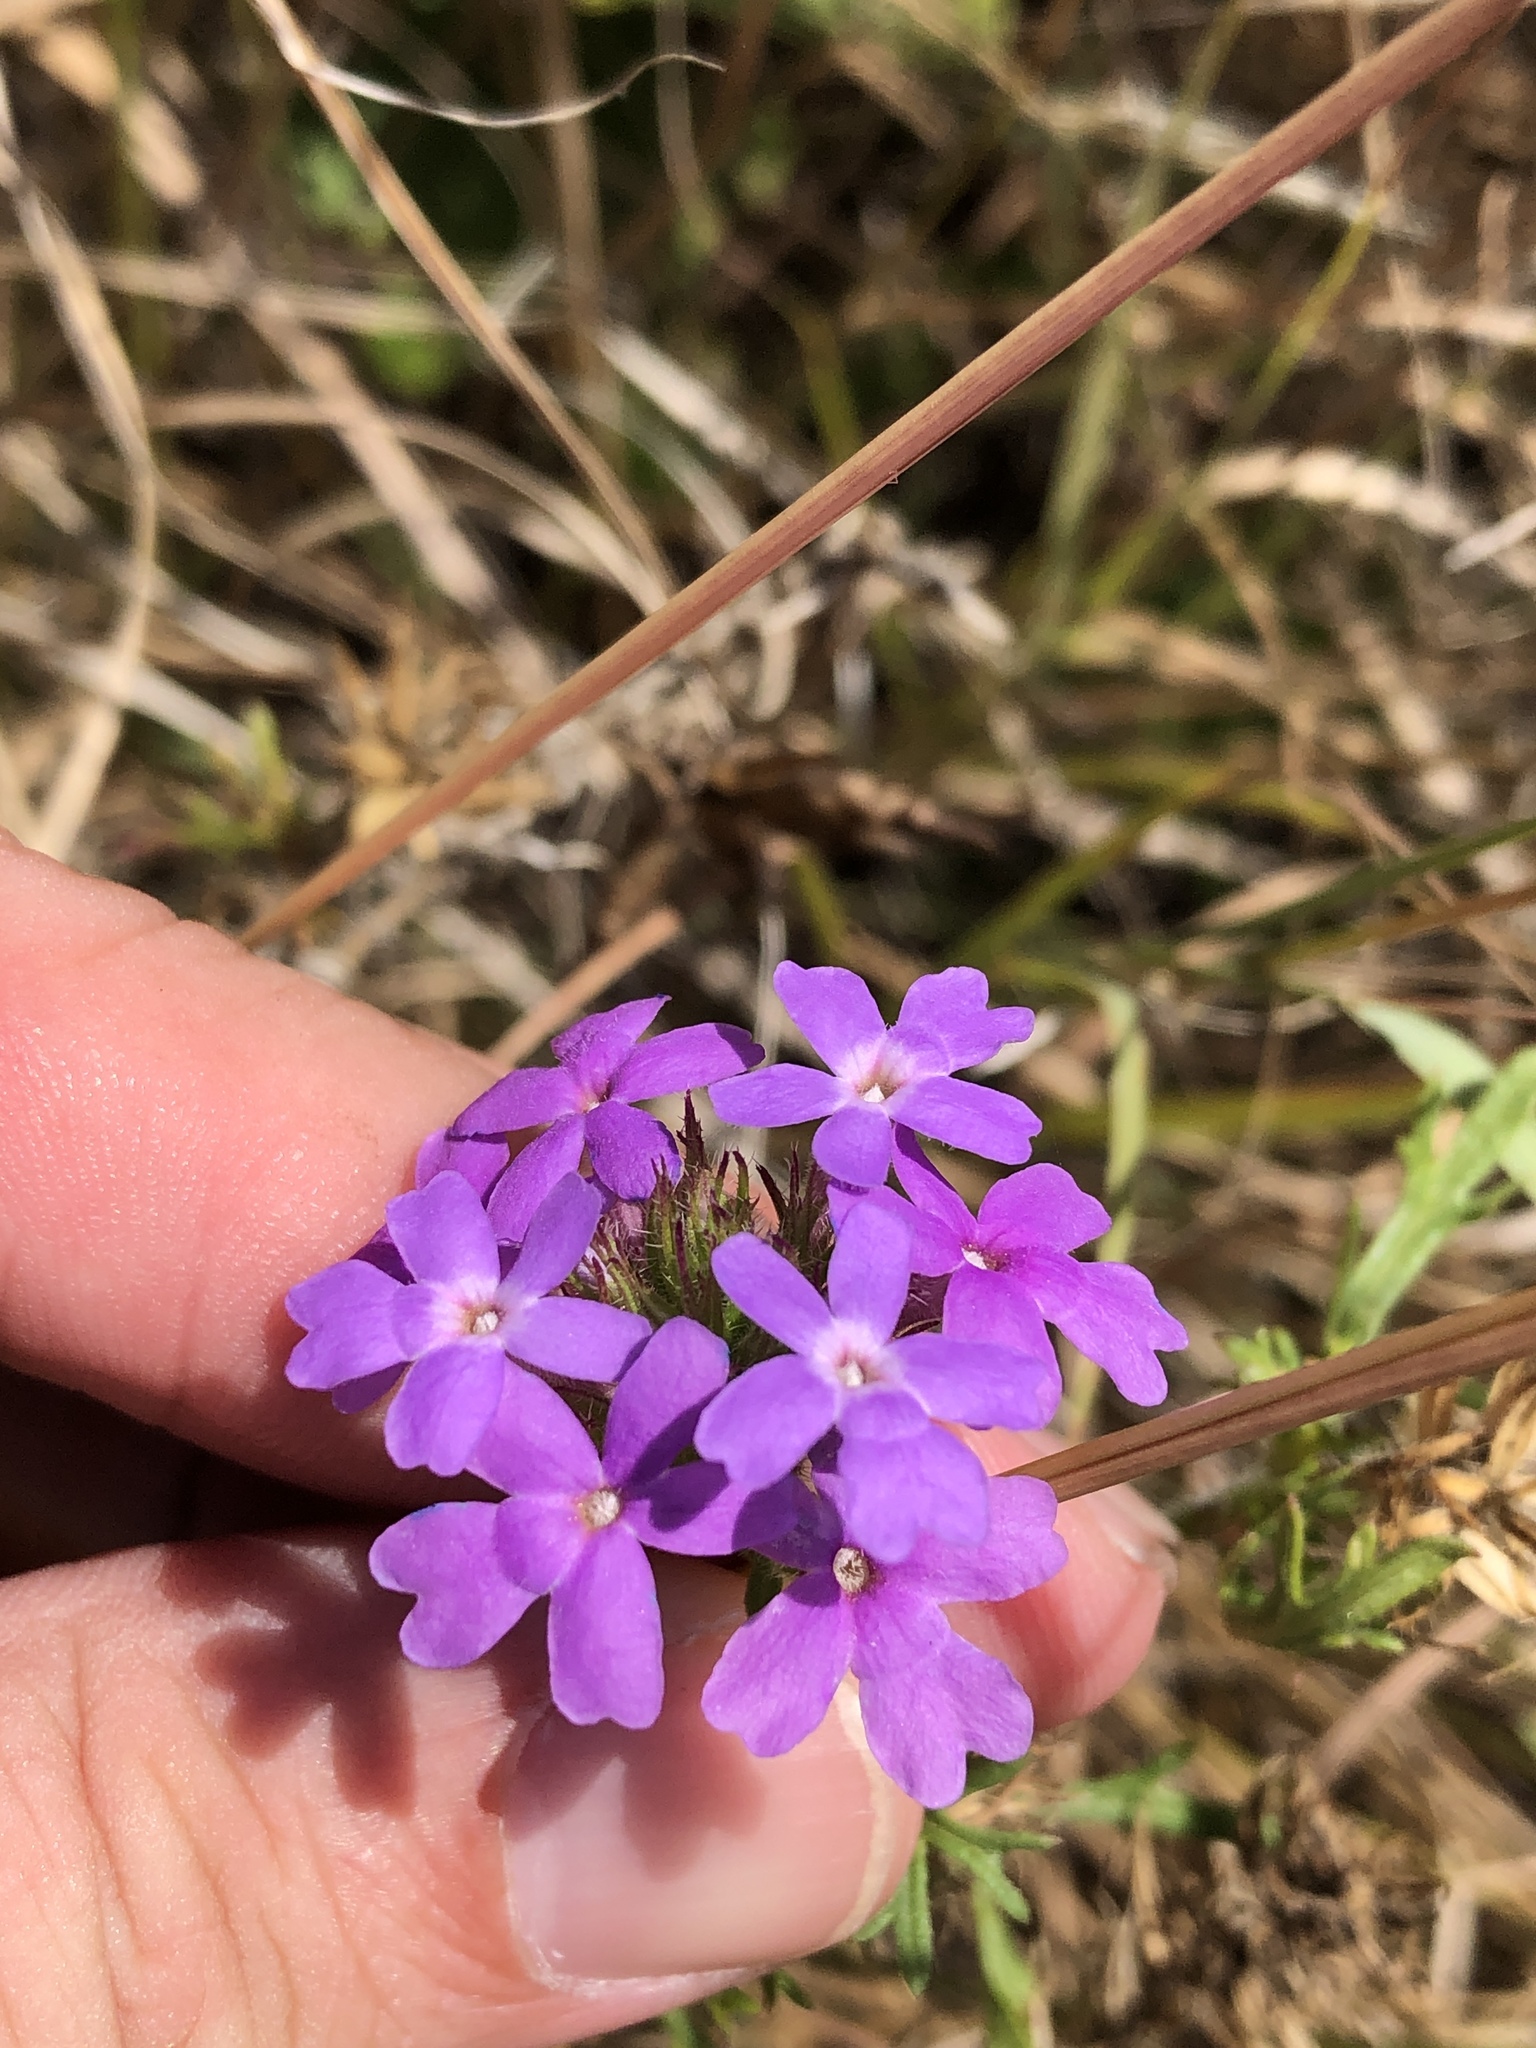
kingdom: Plantae
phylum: Tracheophyta
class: Magnoliopsida
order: Lamiales
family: Verbenaceae
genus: Verbena
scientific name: Verbena bipinnatifida
